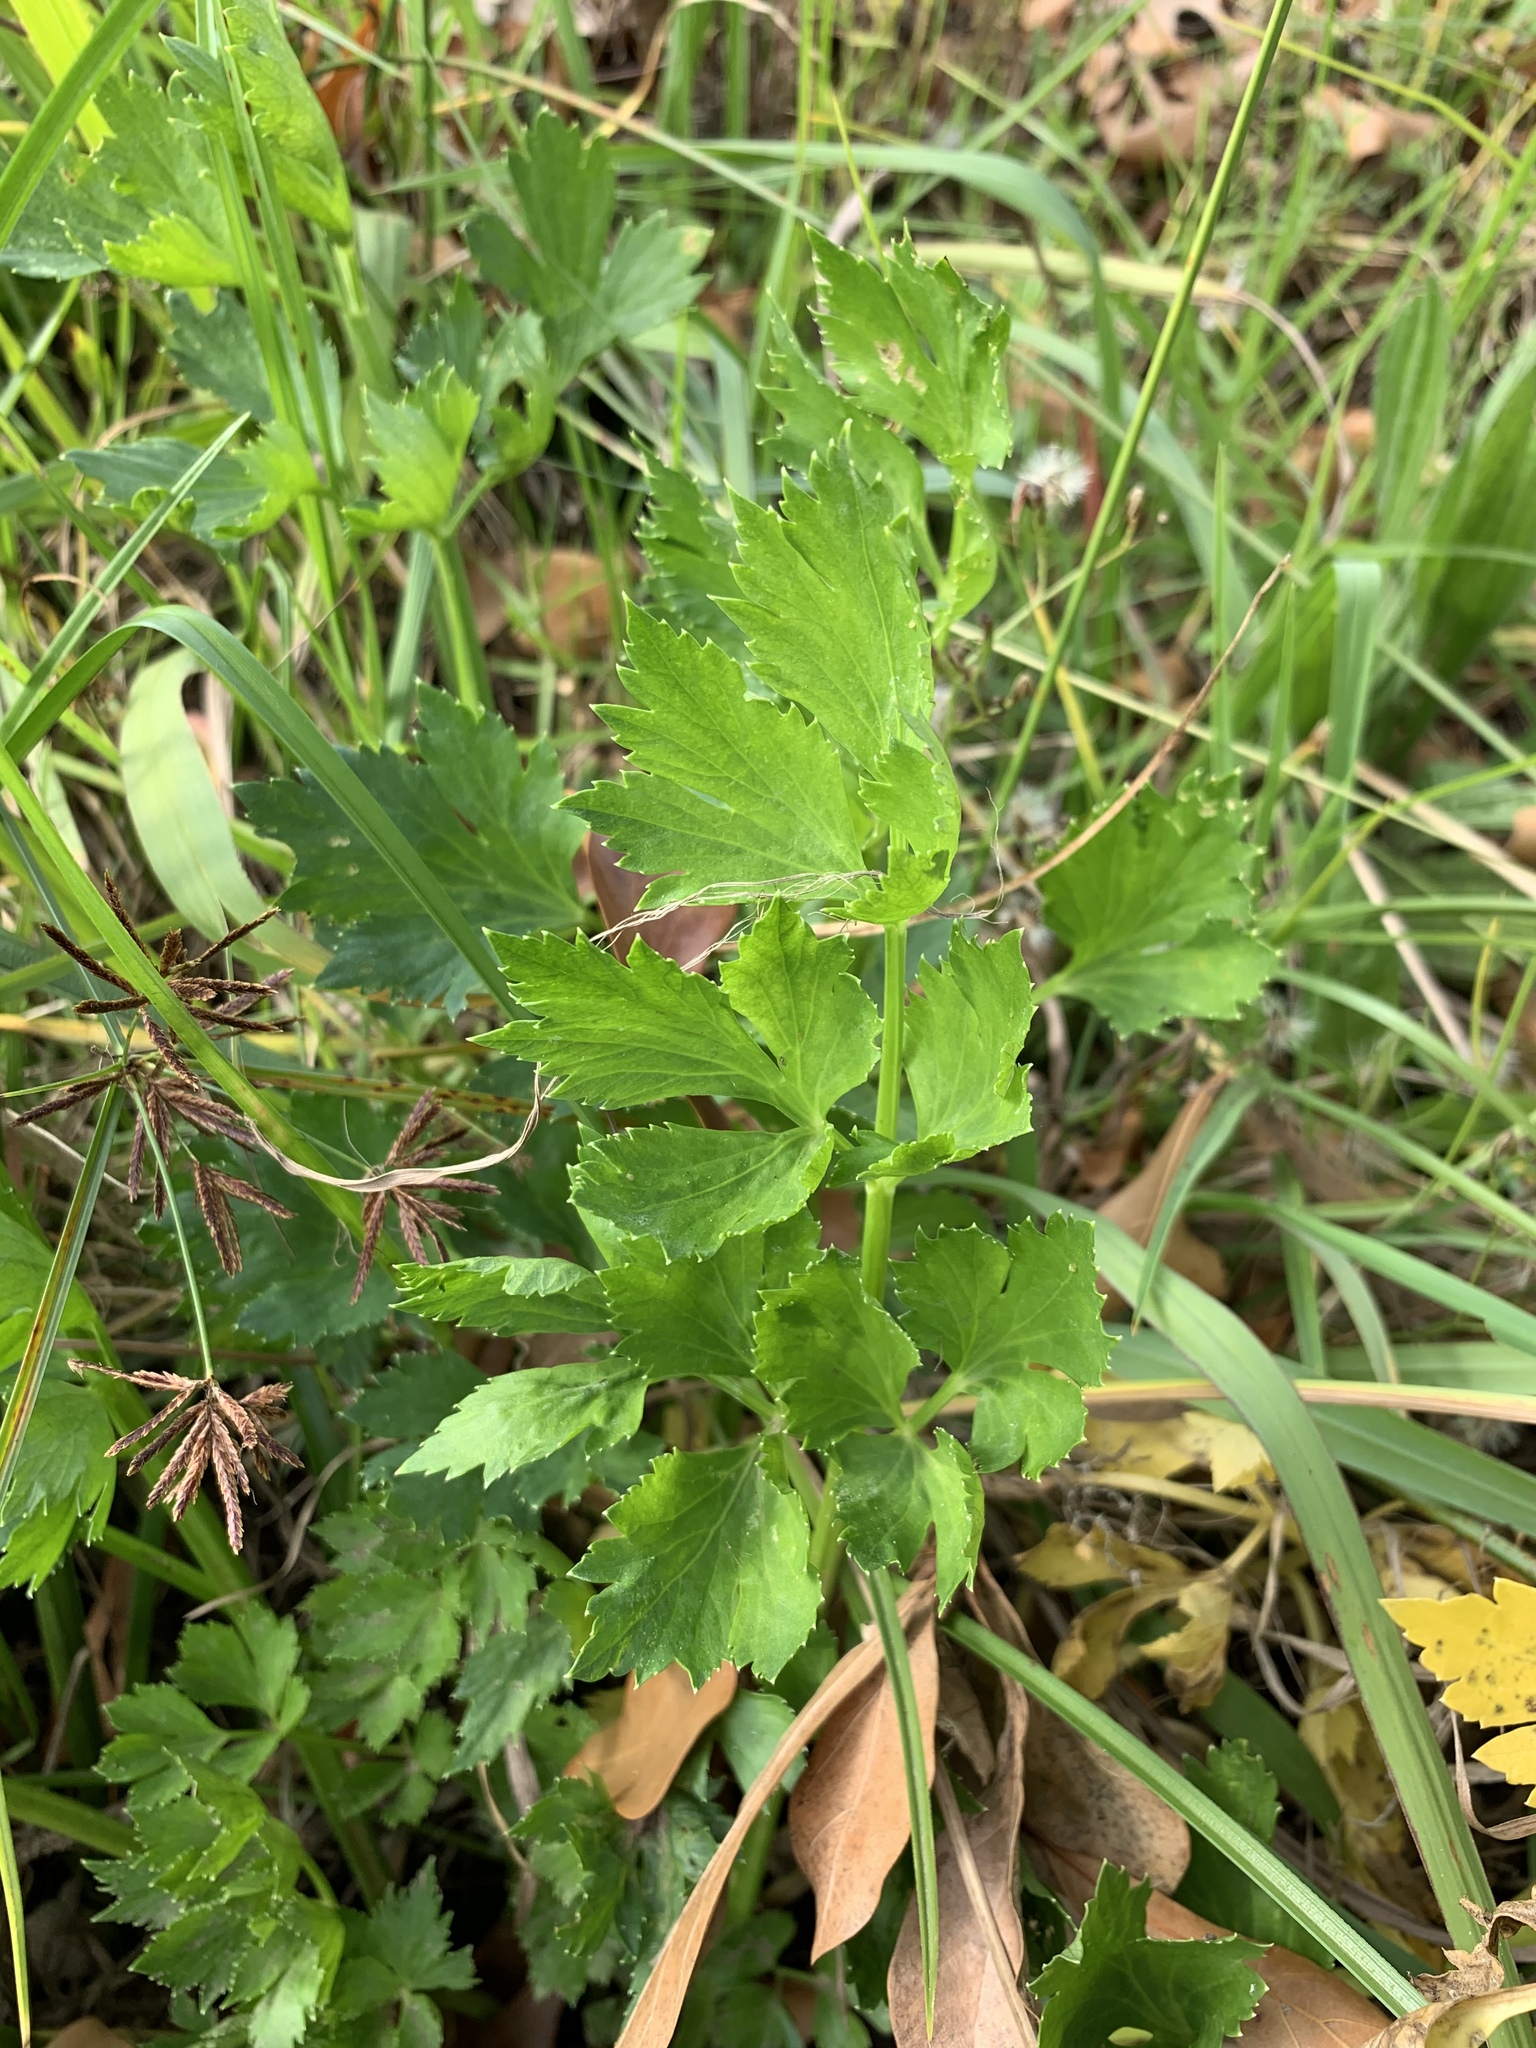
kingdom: Plantae
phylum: Tracheophyta
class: Magnoliopsida
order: Apiales
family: Apiaceae
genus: Apium
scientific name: Apium graveolens
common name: Wild celery
